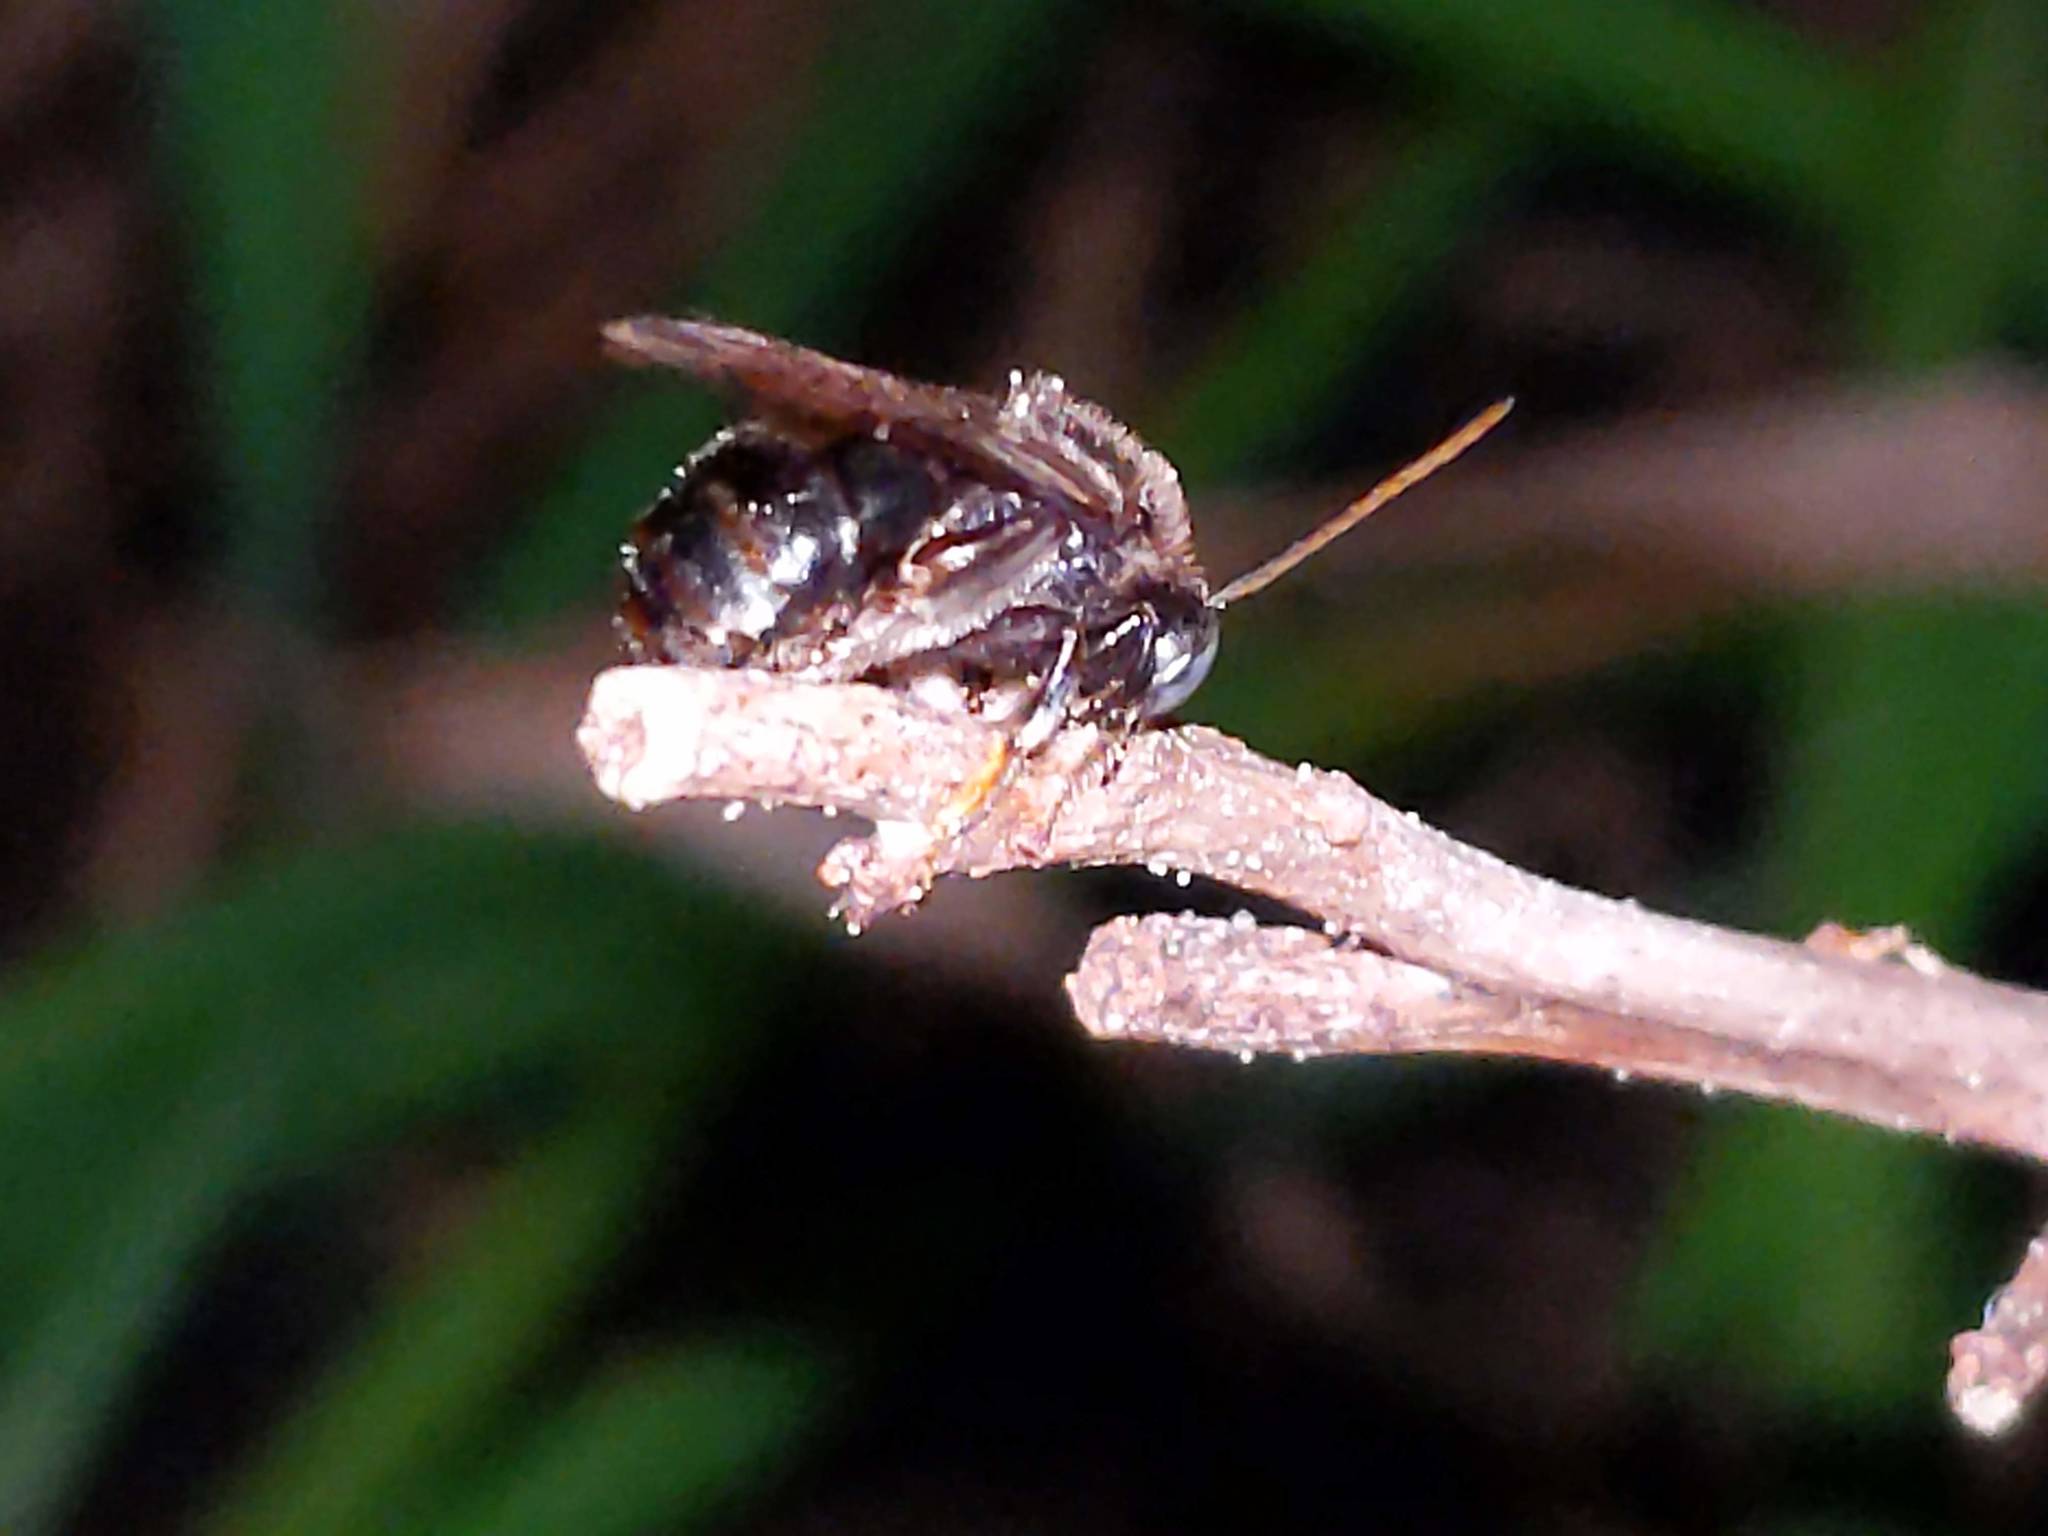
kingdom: Animalia
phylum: Arthropoda
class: Insecta
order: Hymenoptera
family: Apidae
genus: Melissodes
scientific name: Melissodes bimaculatus
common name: Two-spotted long-horned bee
